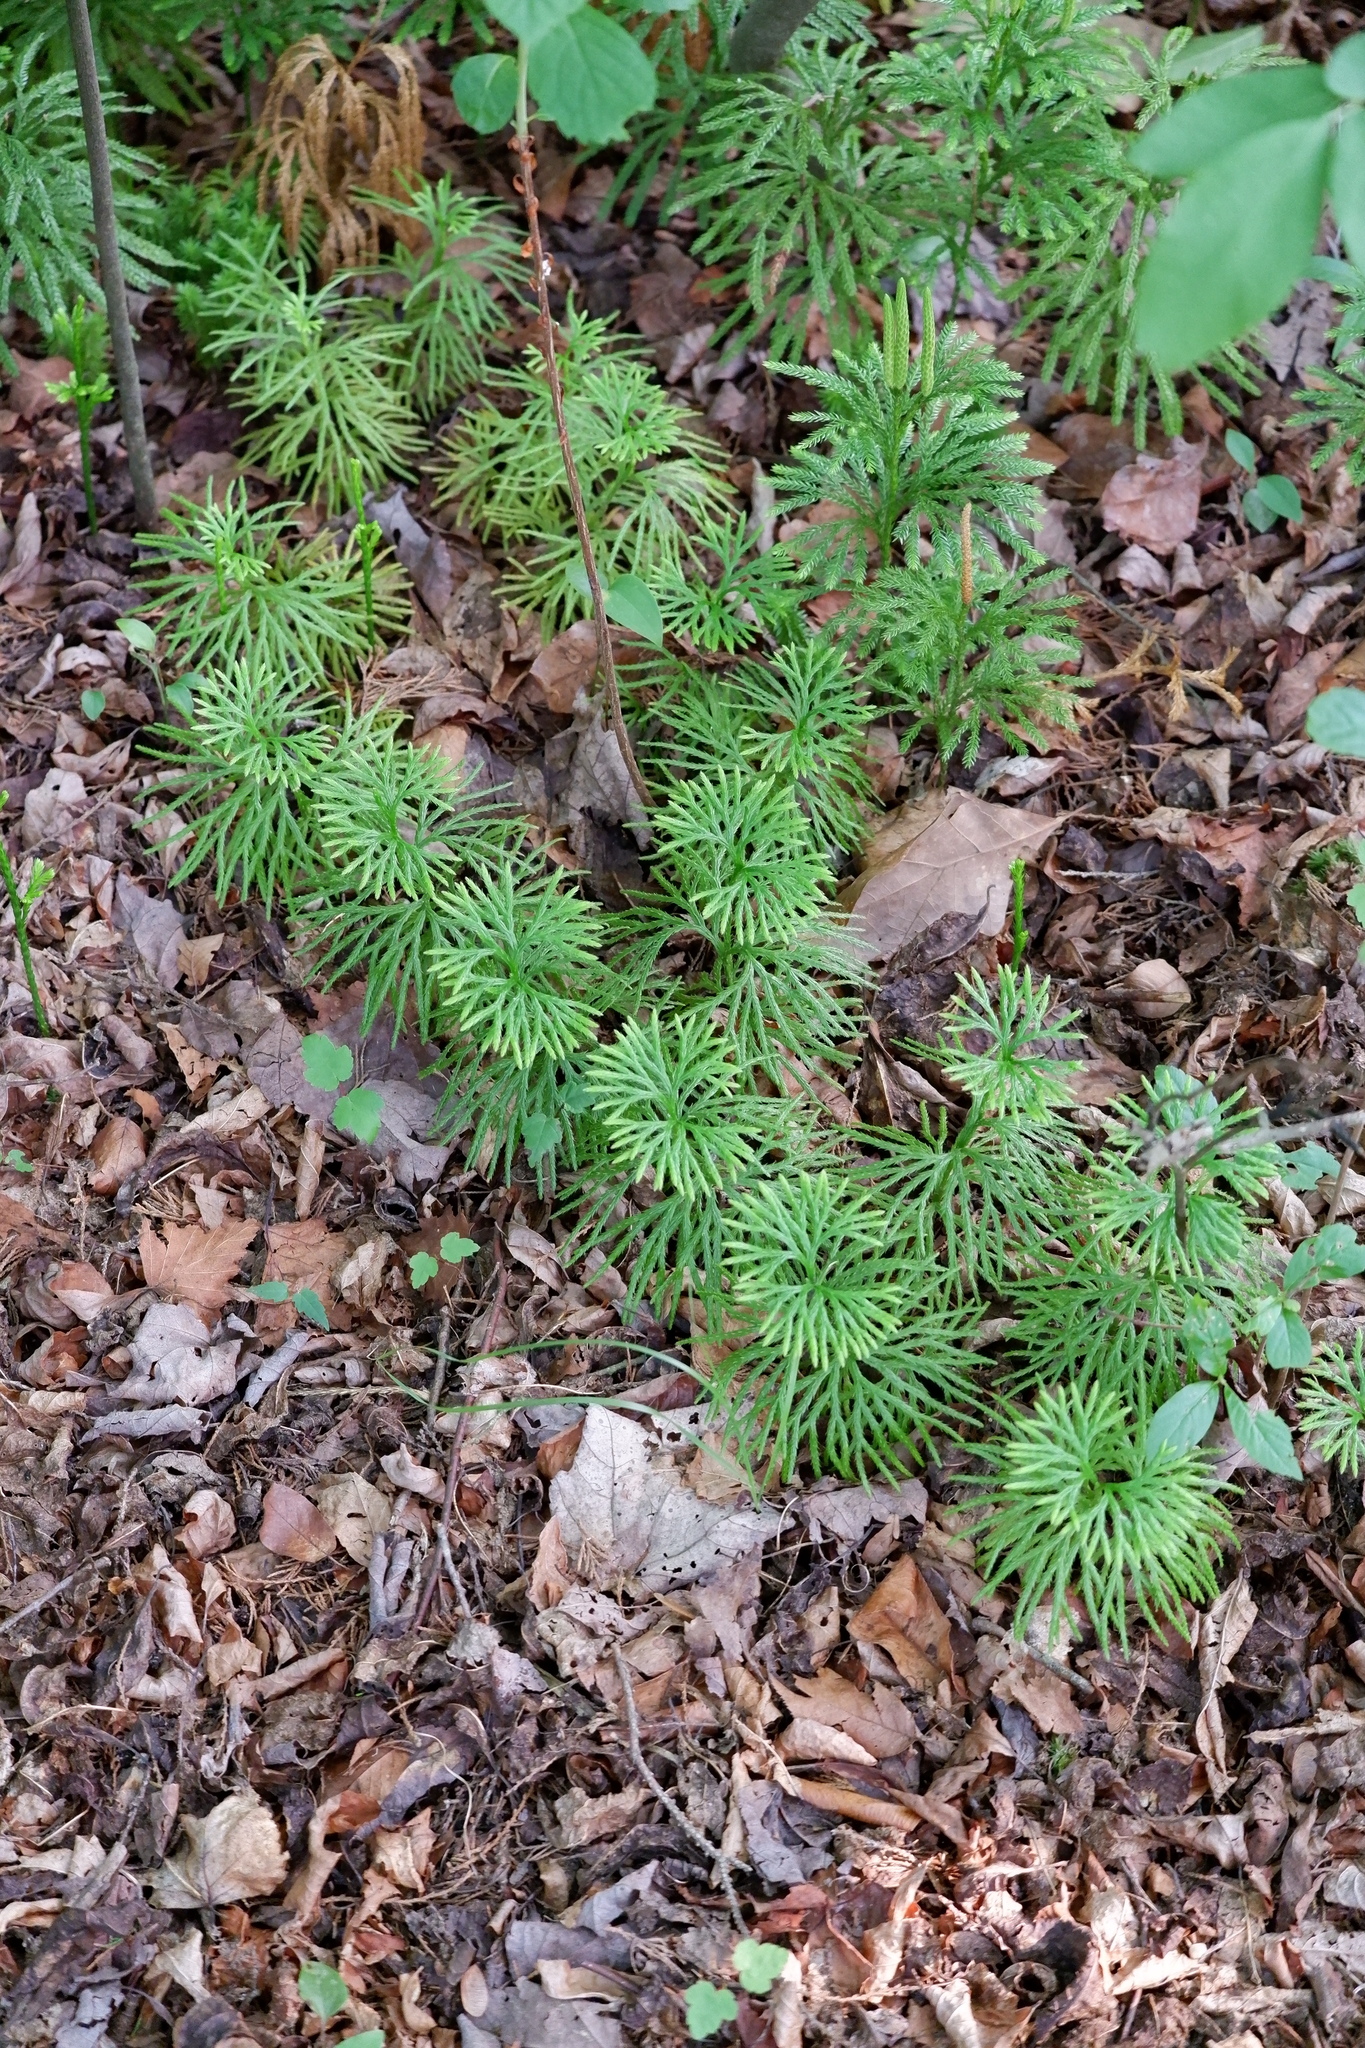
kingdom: Plantae
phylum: Tracheophyta
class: Lycopodiopsida
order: Lycopodiales
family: Lycopodiaceae
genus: Diphasiastrum
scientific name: Diphasiastrum digitatum
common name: Southern running-pine
